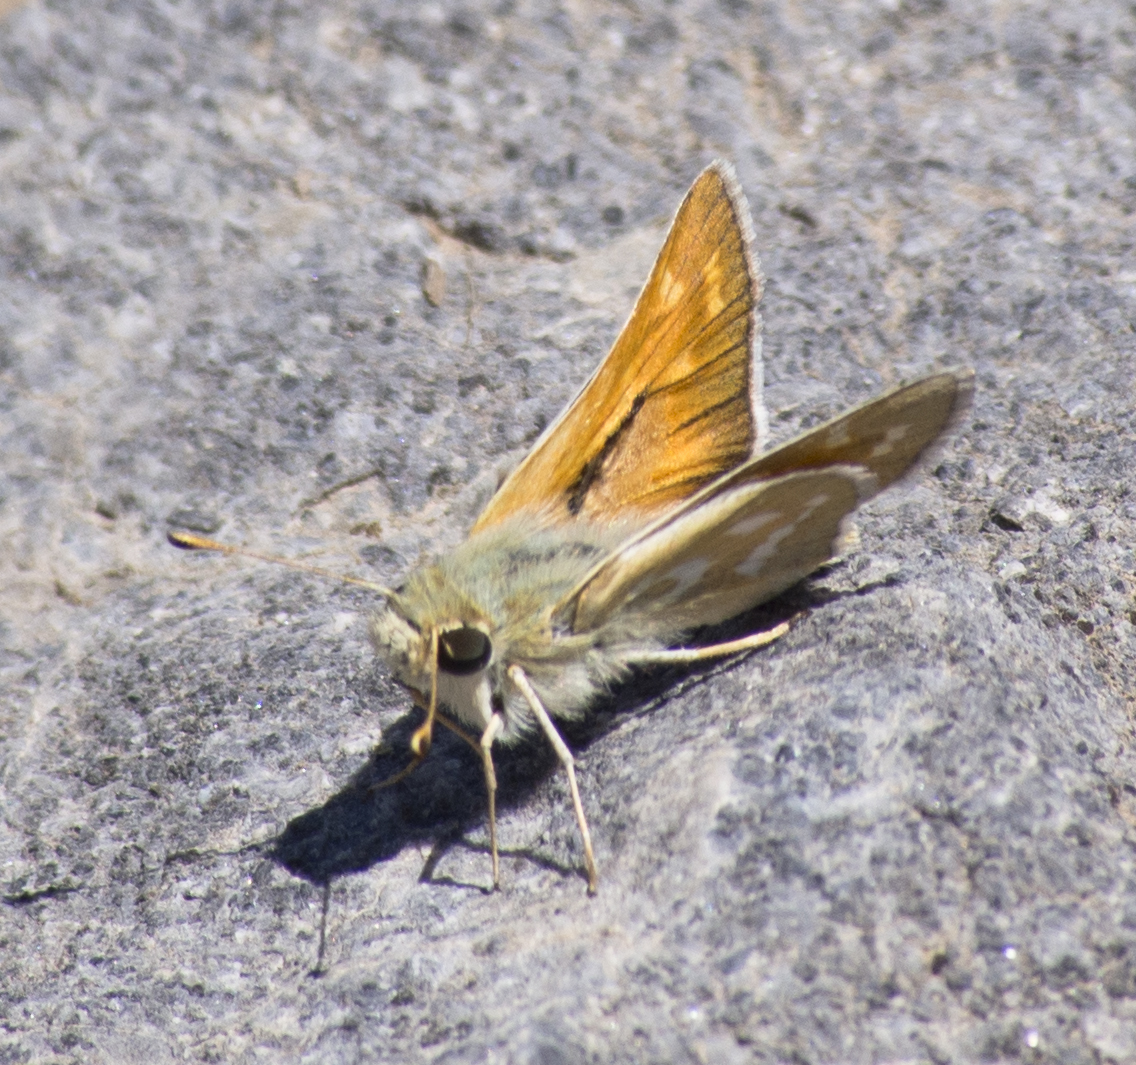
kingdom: Animalia
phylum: Arthropoda
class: Insecta
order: Lepidoptera
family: Hesperiidae
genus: Hesperia
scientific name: Hesperia comma
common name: Common branded skipper
